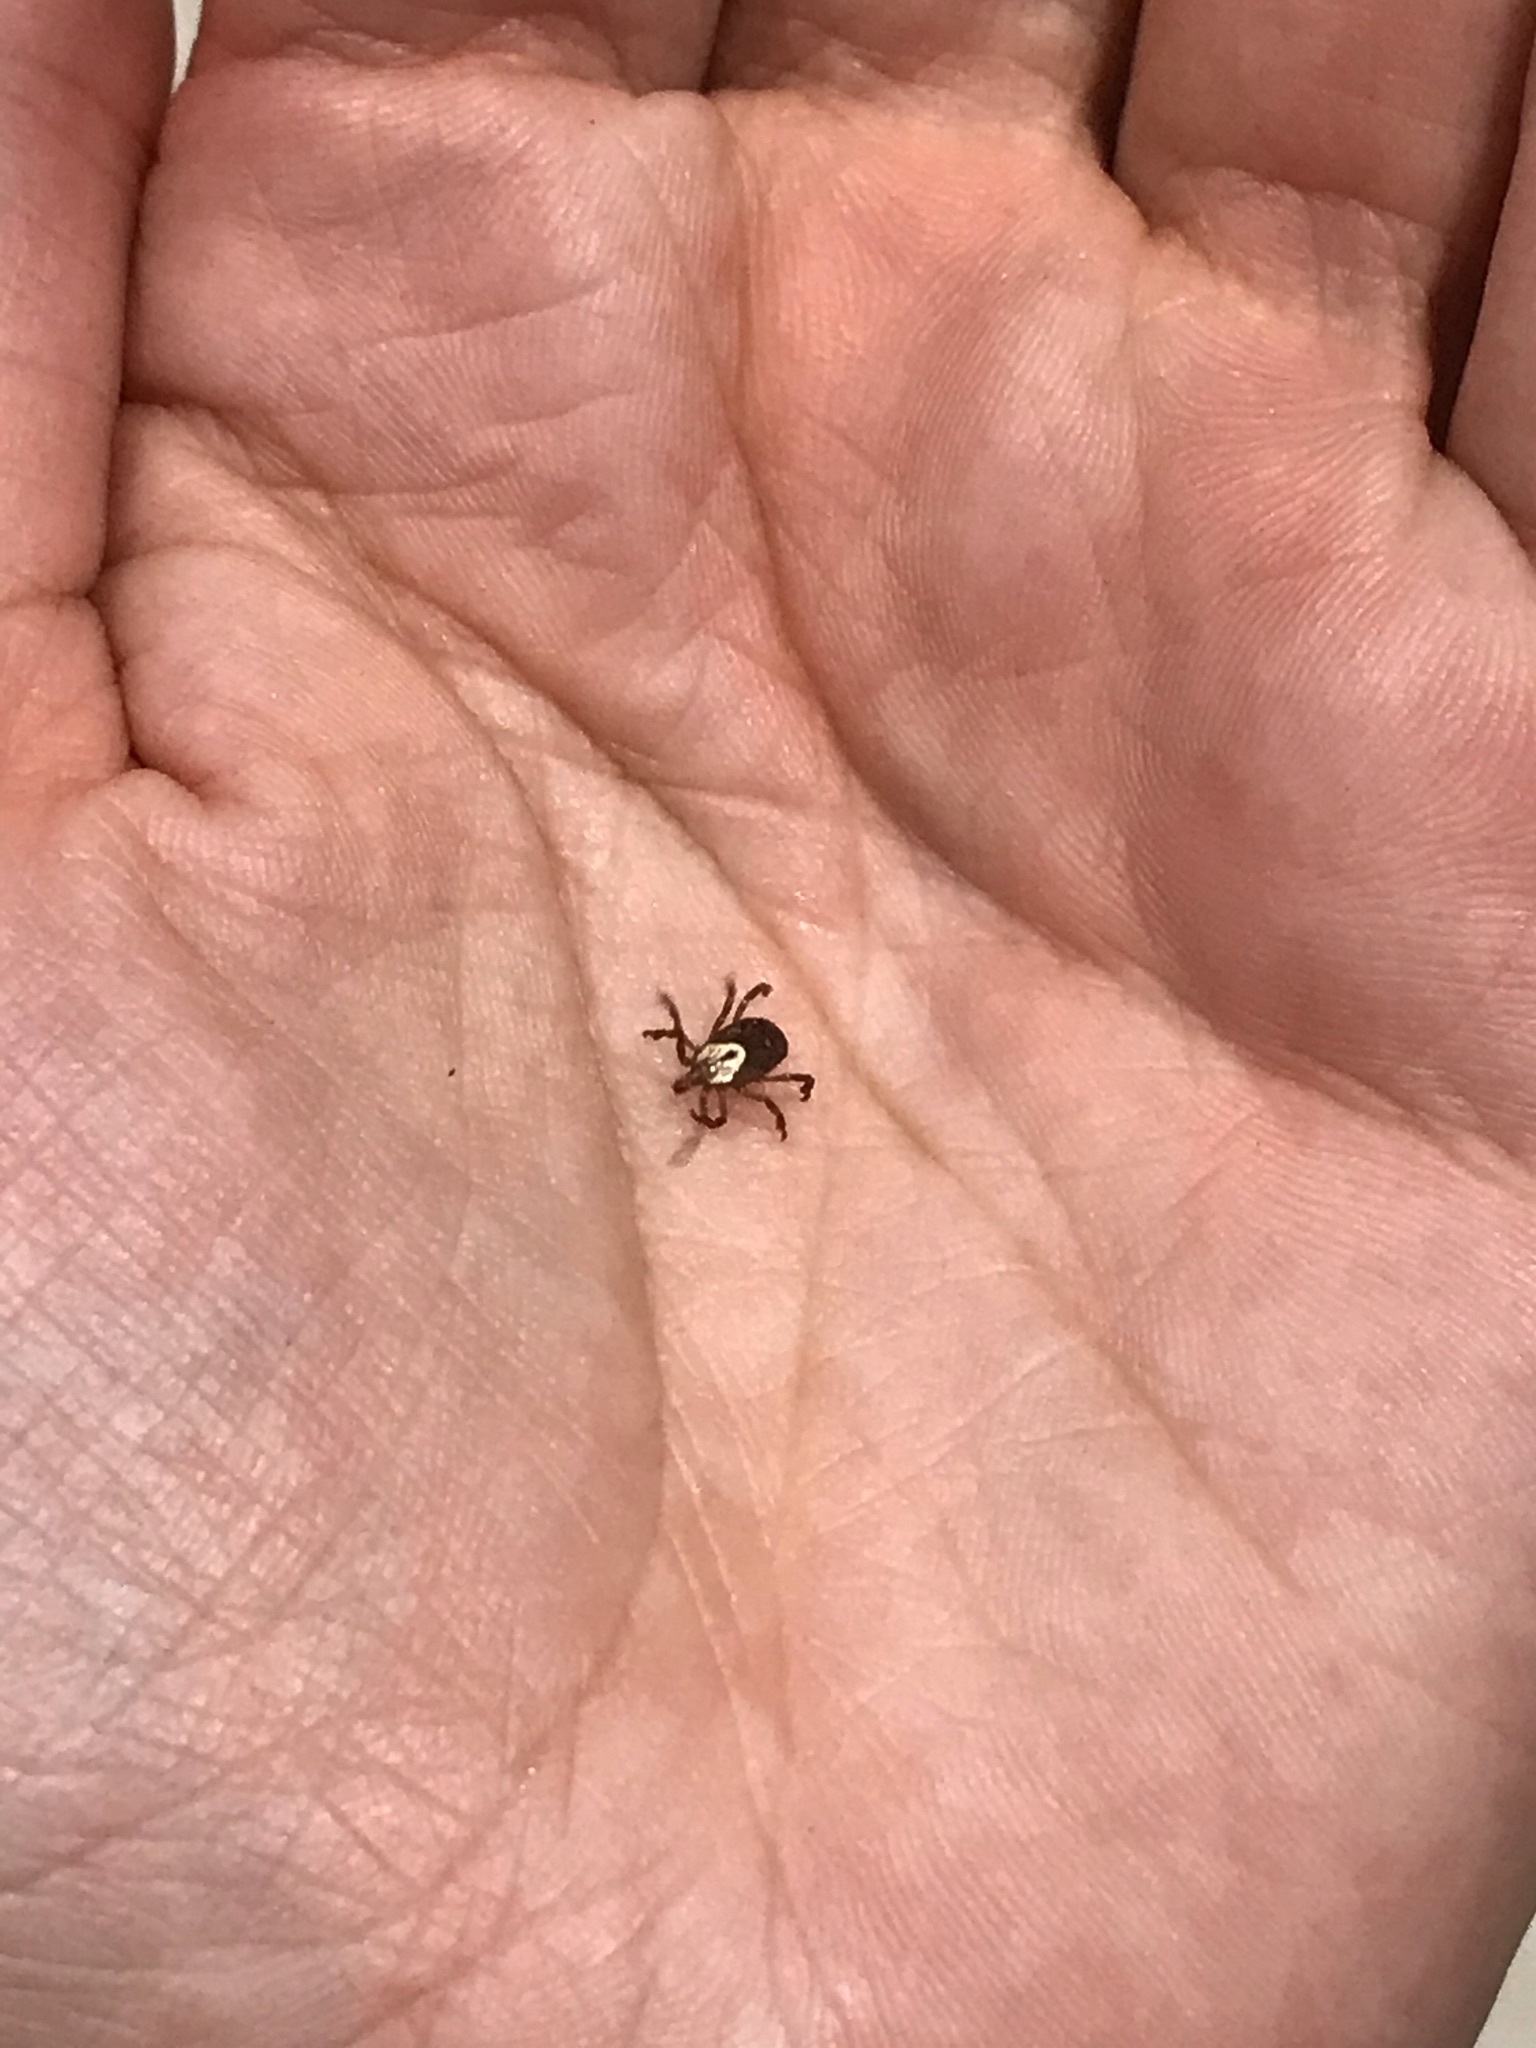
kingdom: Animalia
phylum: Arthropoda
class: Arachnida
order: Ixodida
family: Ixodidae
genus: Amblyomma
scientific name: Amblyomma maculatum
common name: Gulf coast tick
